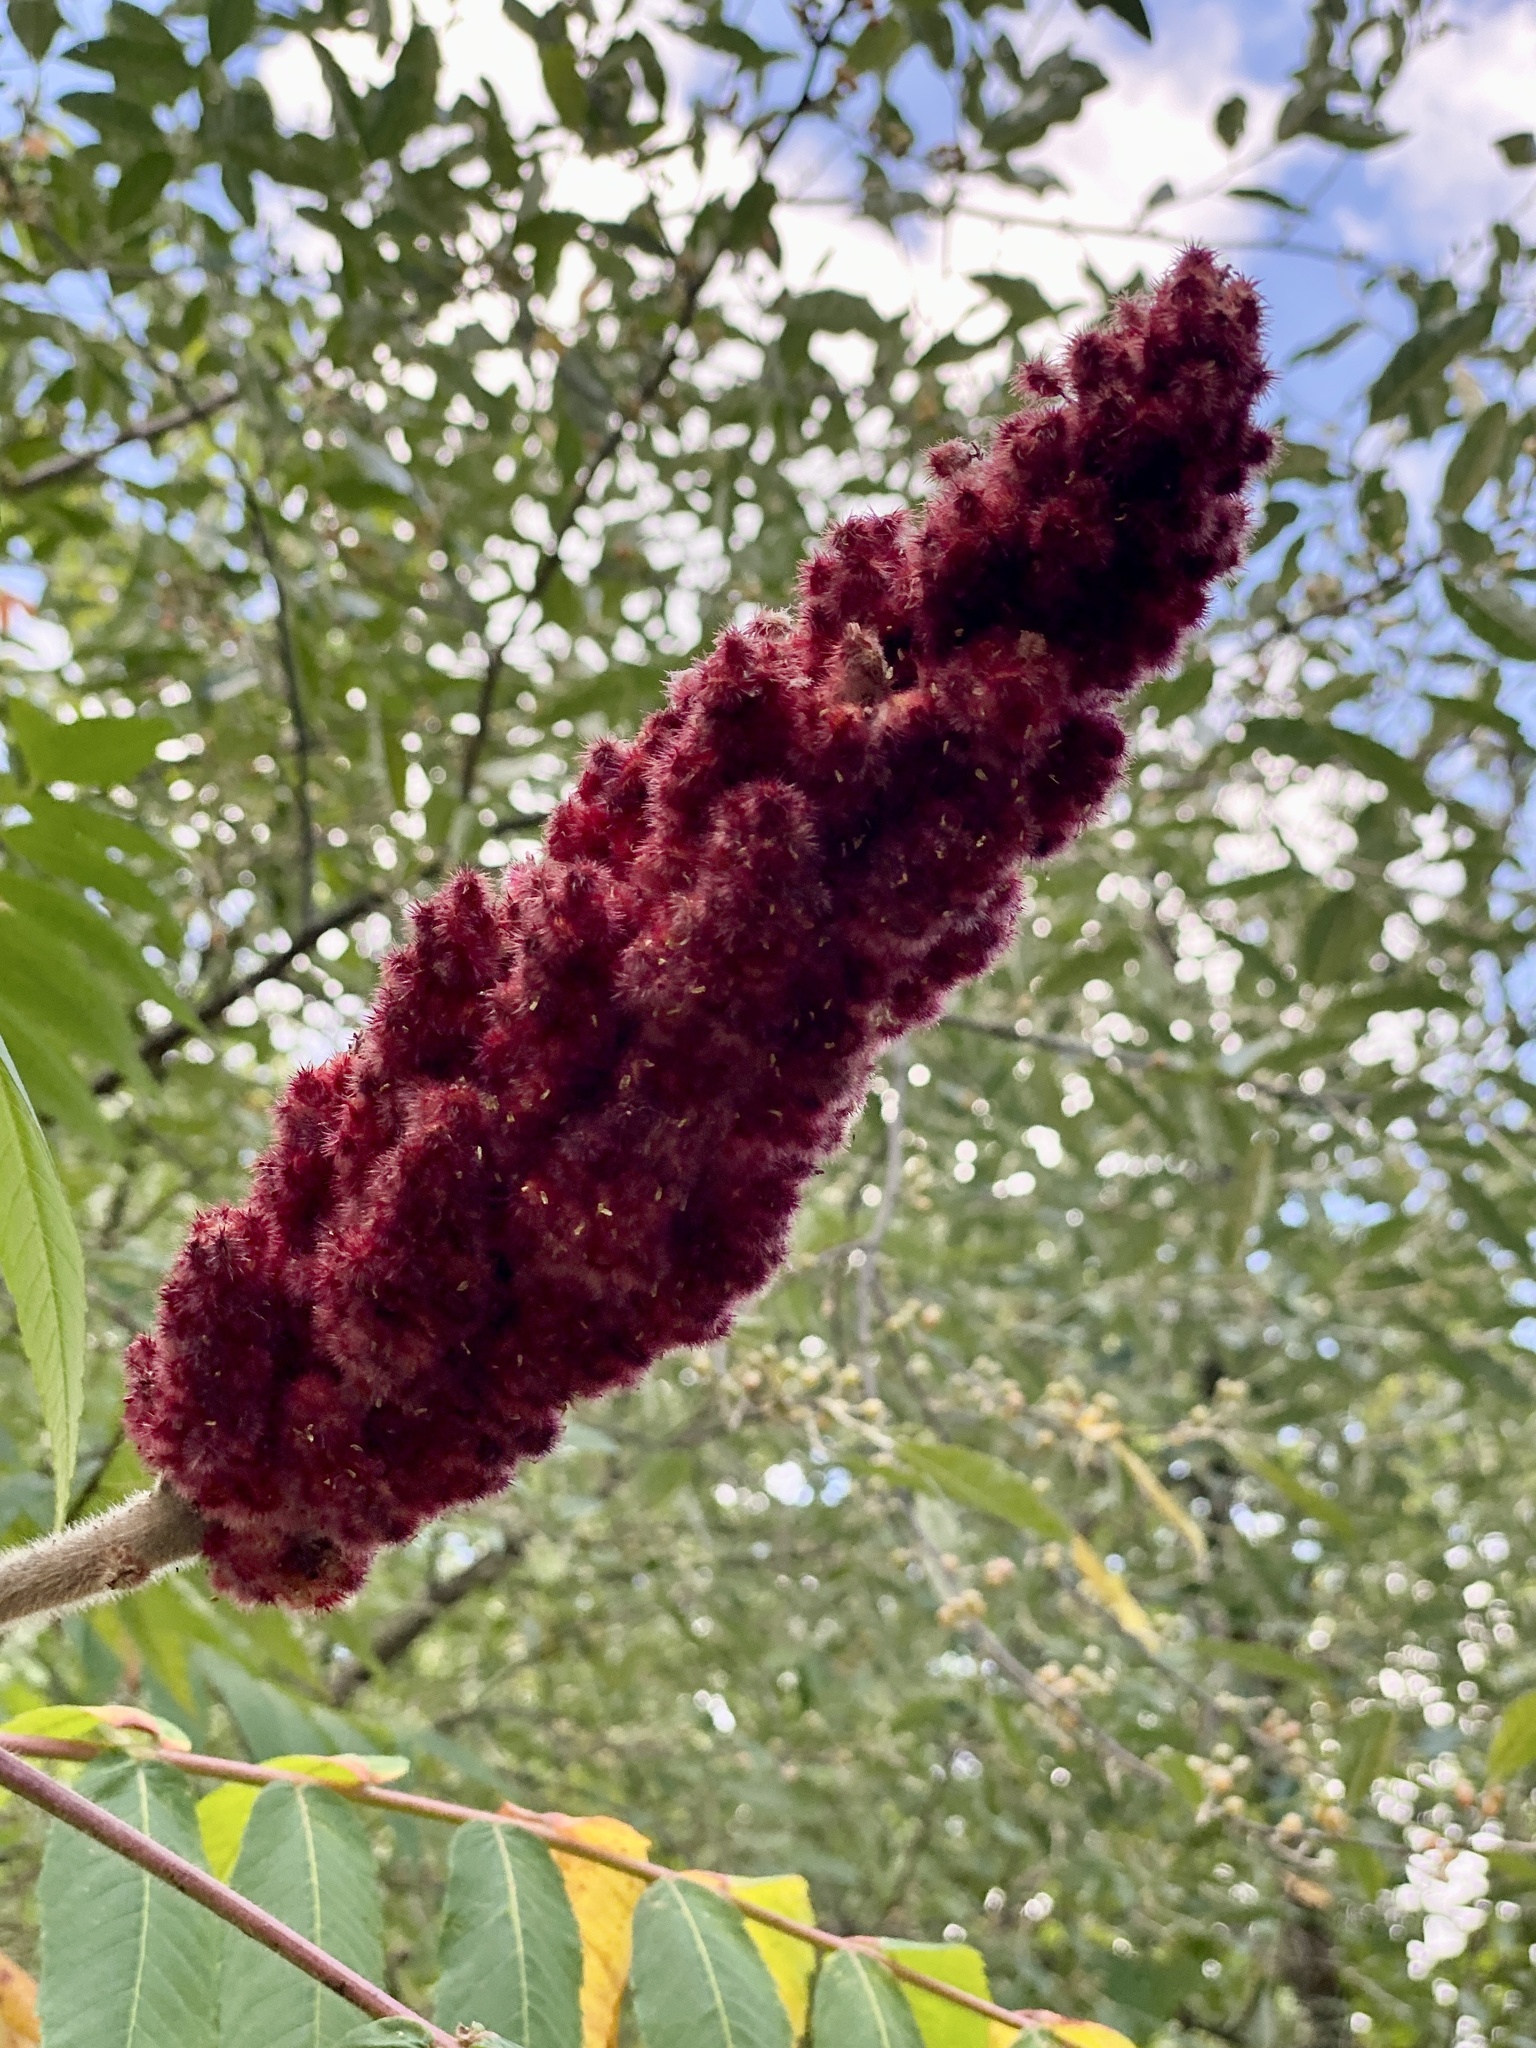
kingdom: Plantae
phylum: Tracheophyta
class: Magnoliopsida
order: Sapindales
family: Anacardiaceae
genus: Rhus
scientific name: Rhus typhina
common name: Staghorn sumac
